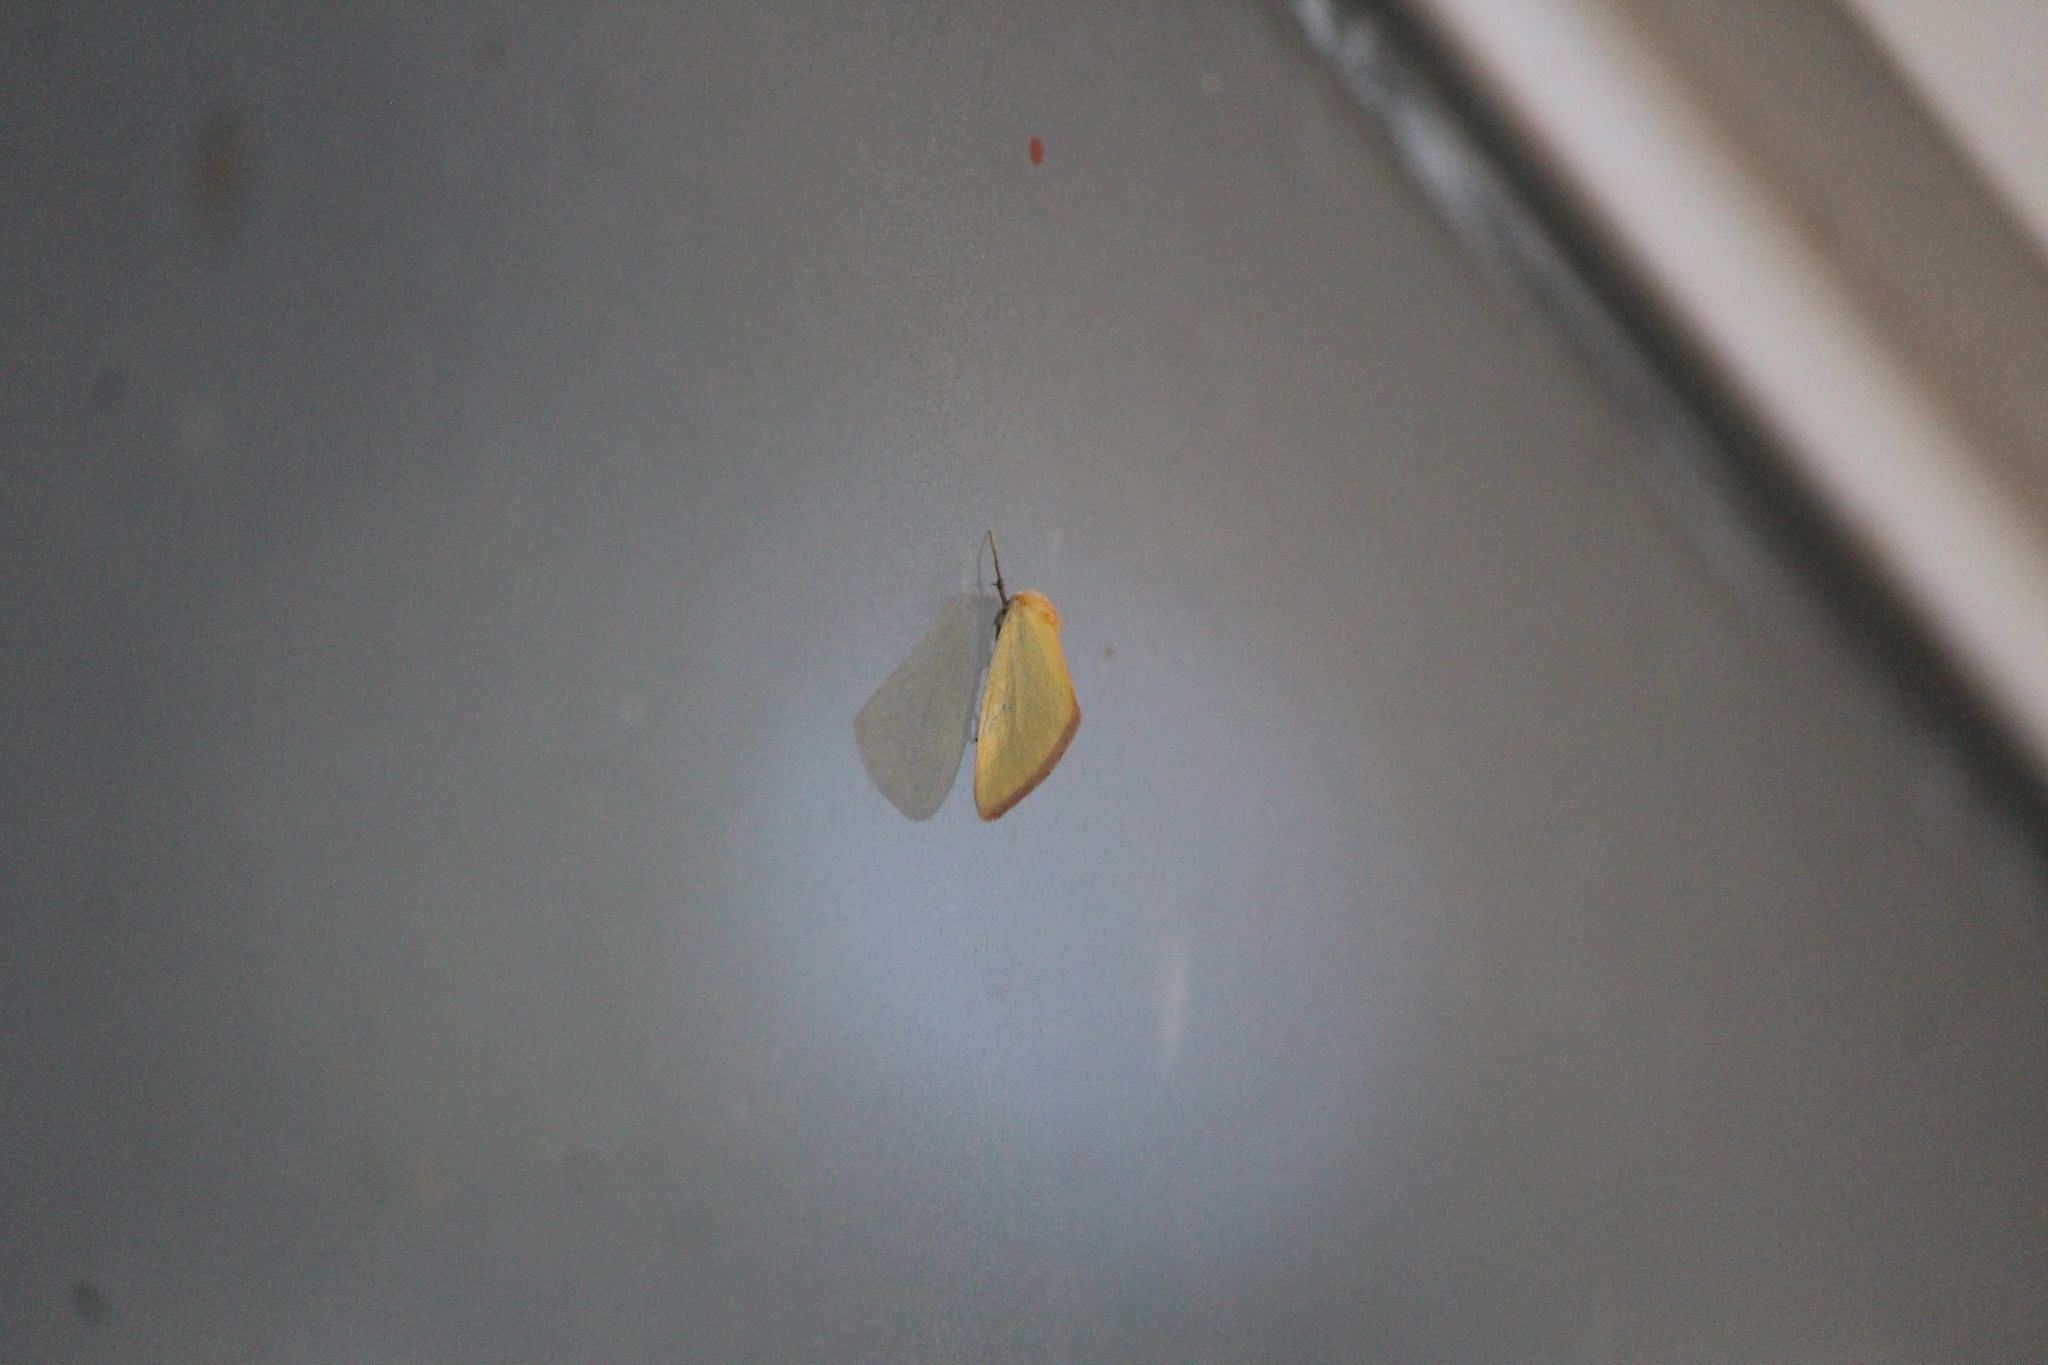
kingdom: Animalia
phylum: Arthropoda
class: Insecta
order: Lepidoptera
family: Noctuidae
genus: Chrysoecia
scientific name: Chrysoecia thoracica
